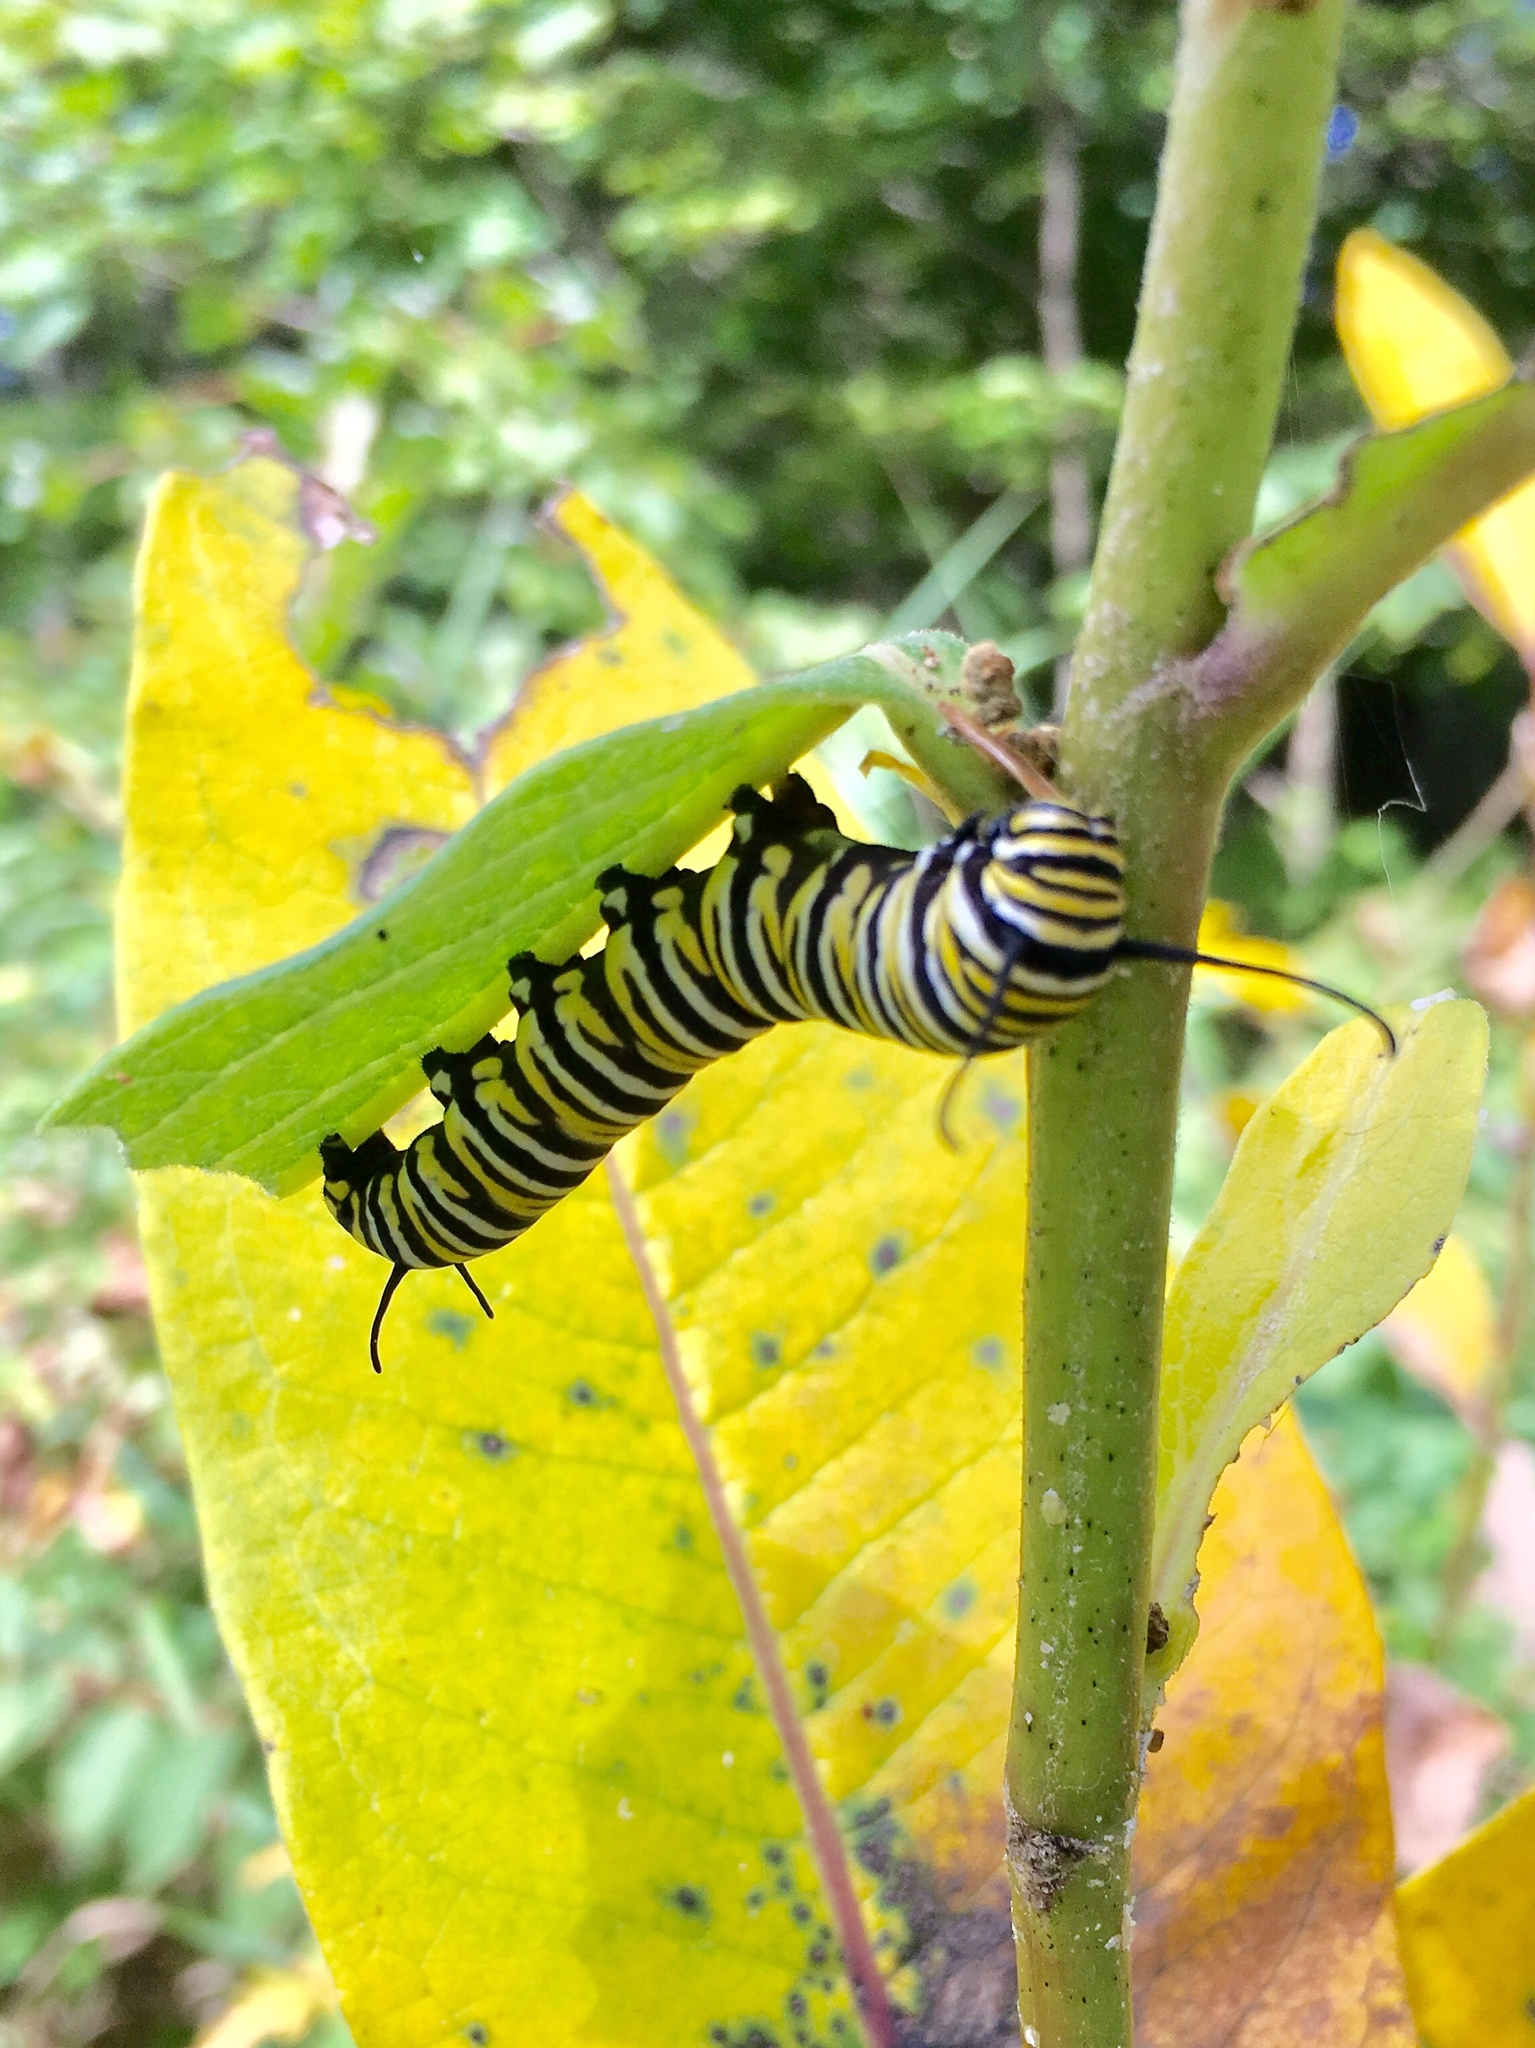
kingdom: Animalia
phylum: Arthropoda
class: Insecta
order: Lepidoptera
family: Nymphalidae
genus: Danaus
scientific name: Danaus plexippus
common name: Monarch
